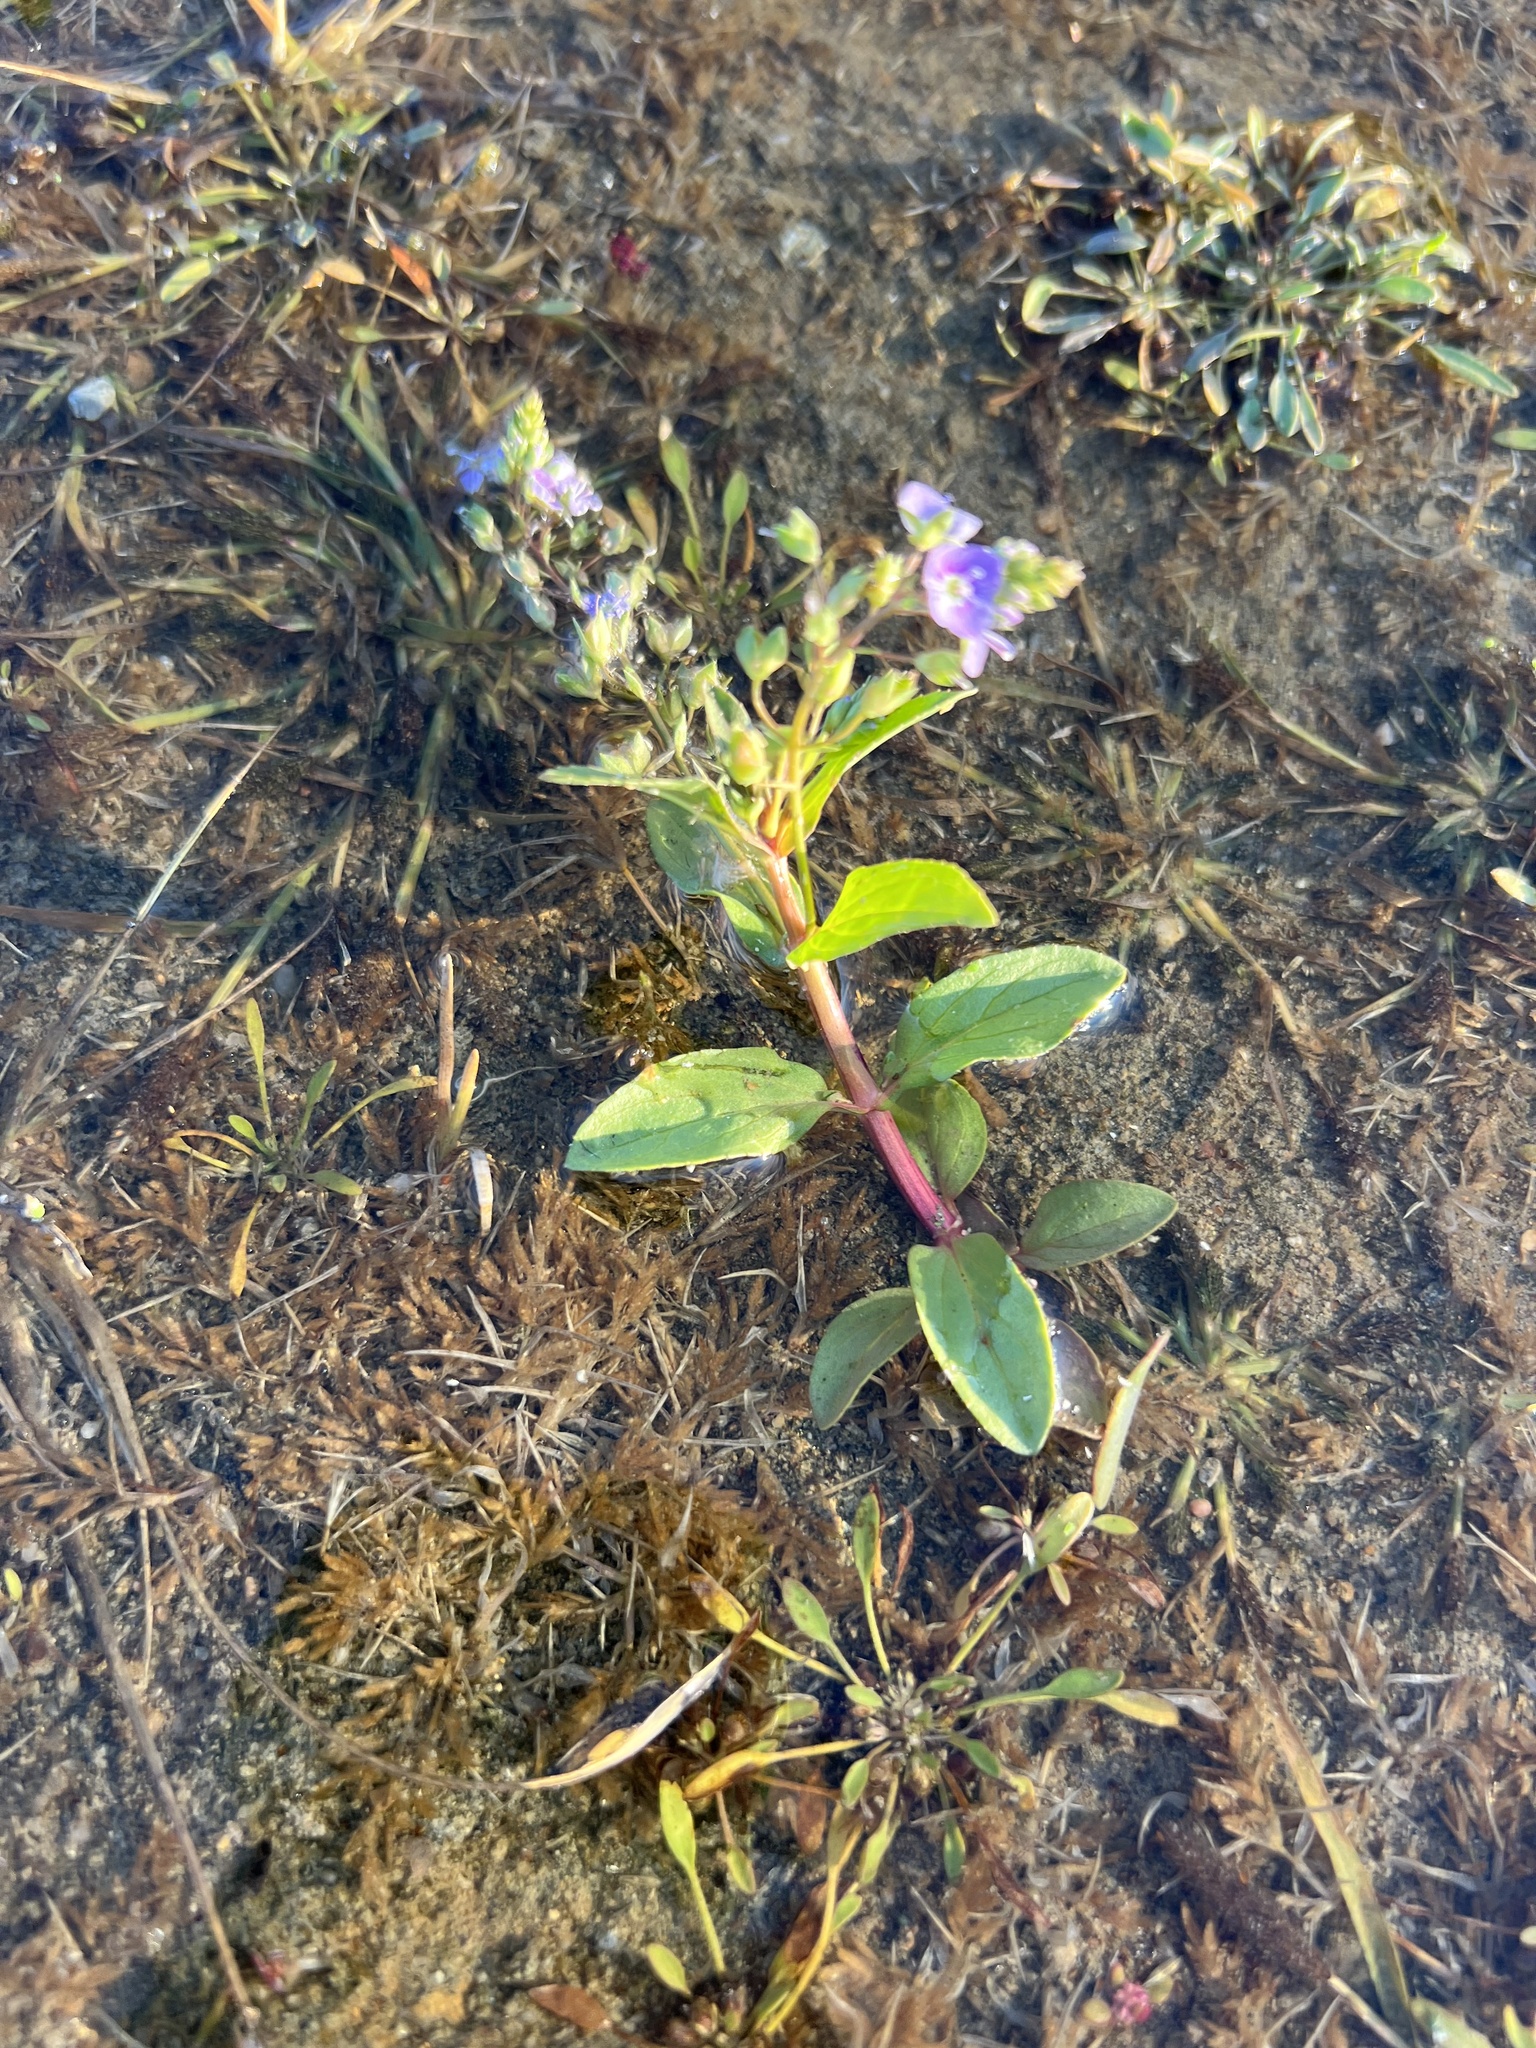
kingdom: Plantae
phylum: Tracheophyta
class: Magnoliopsida
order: Lamiales
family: Plantaginaceae
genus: Veronica
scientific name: Veronica anagallis-aquatica
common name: Water speedwell
